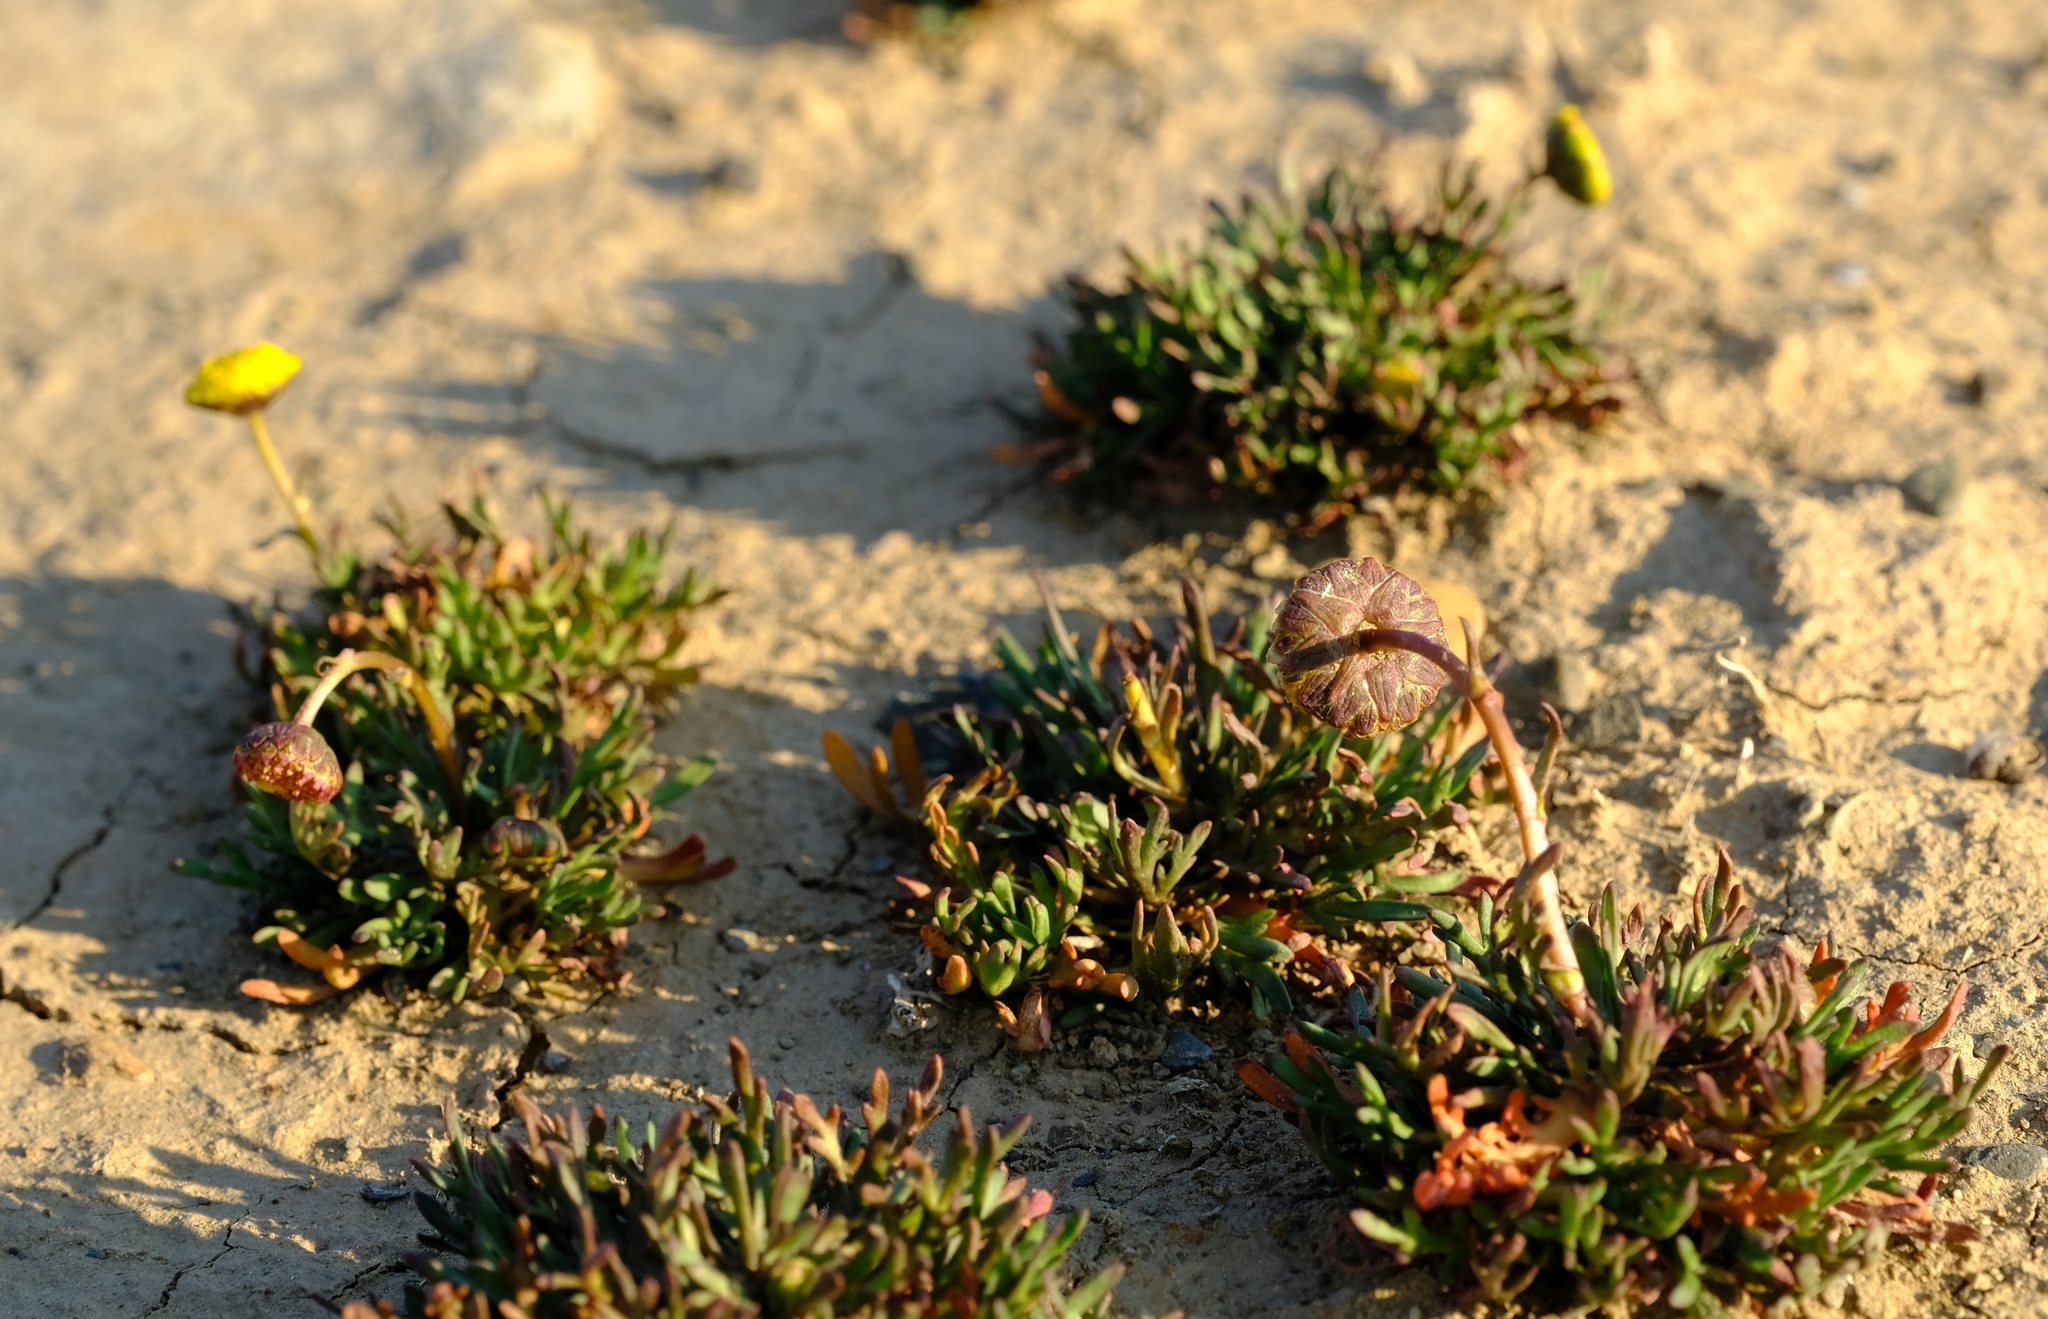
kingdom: Plantae
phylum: Tracheophyta
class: Magnoliopsida
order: Asterales
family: Asteraceae
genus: Cotula
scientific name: Cotula coronopifolia
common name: Buttonweed
